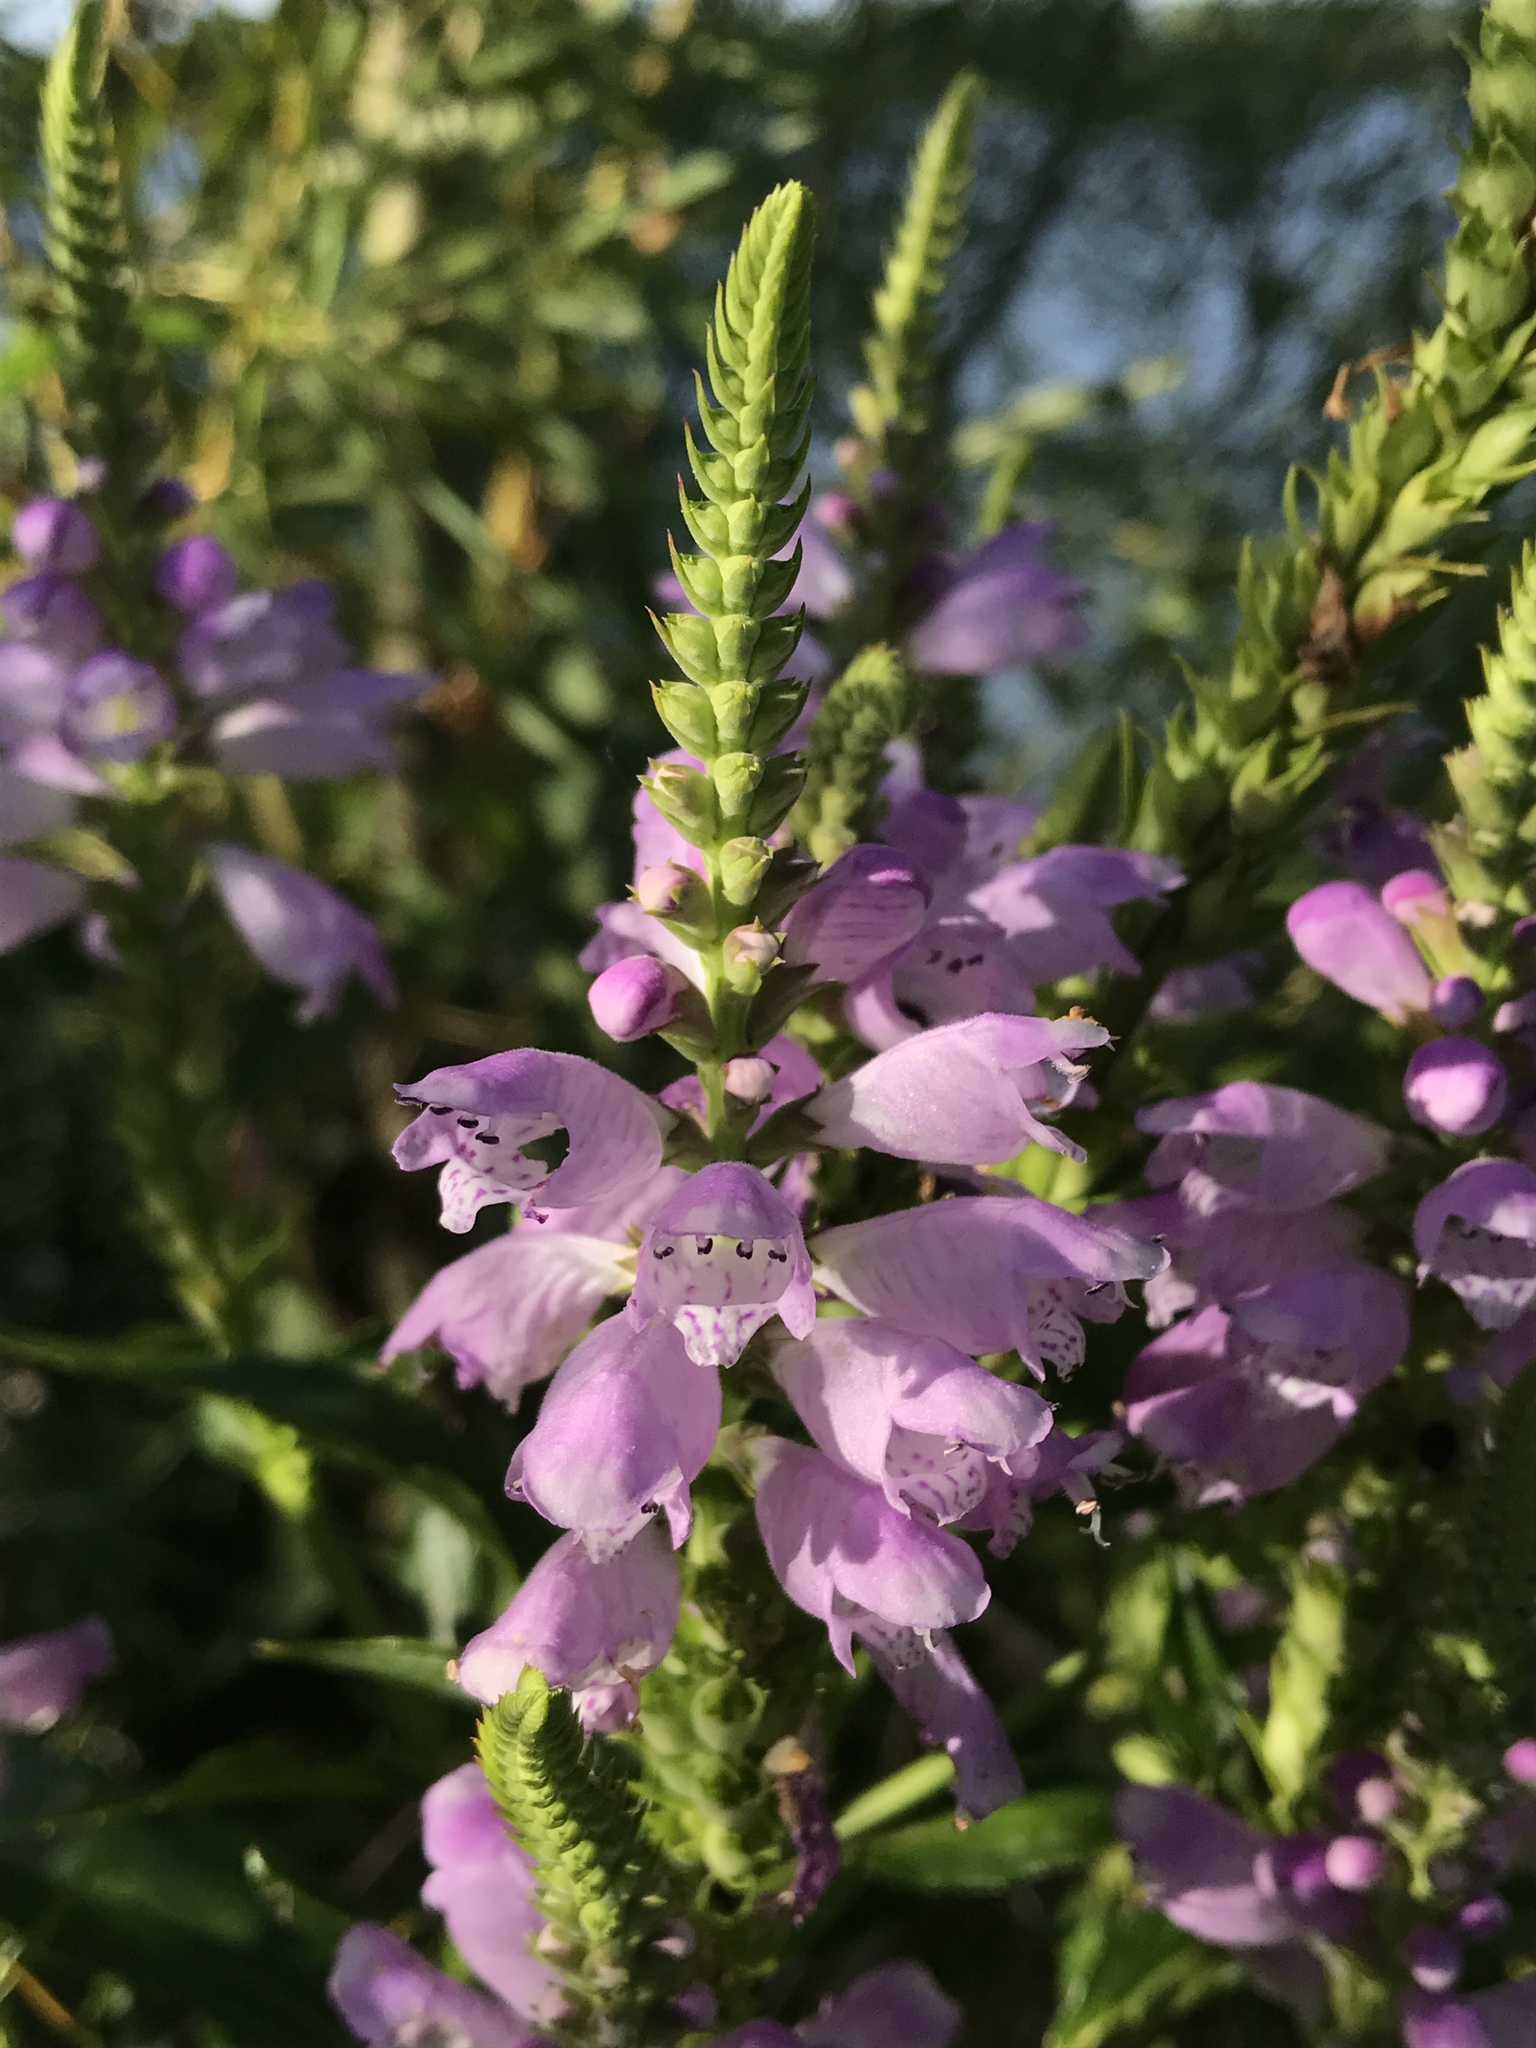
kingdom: Plantae
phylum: Tracheophyta
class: Magnoliopsida
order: Lamiales
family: Lamiaceae
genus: Physostegia
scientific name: Physostegia virginiana
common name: Obedient-plant
